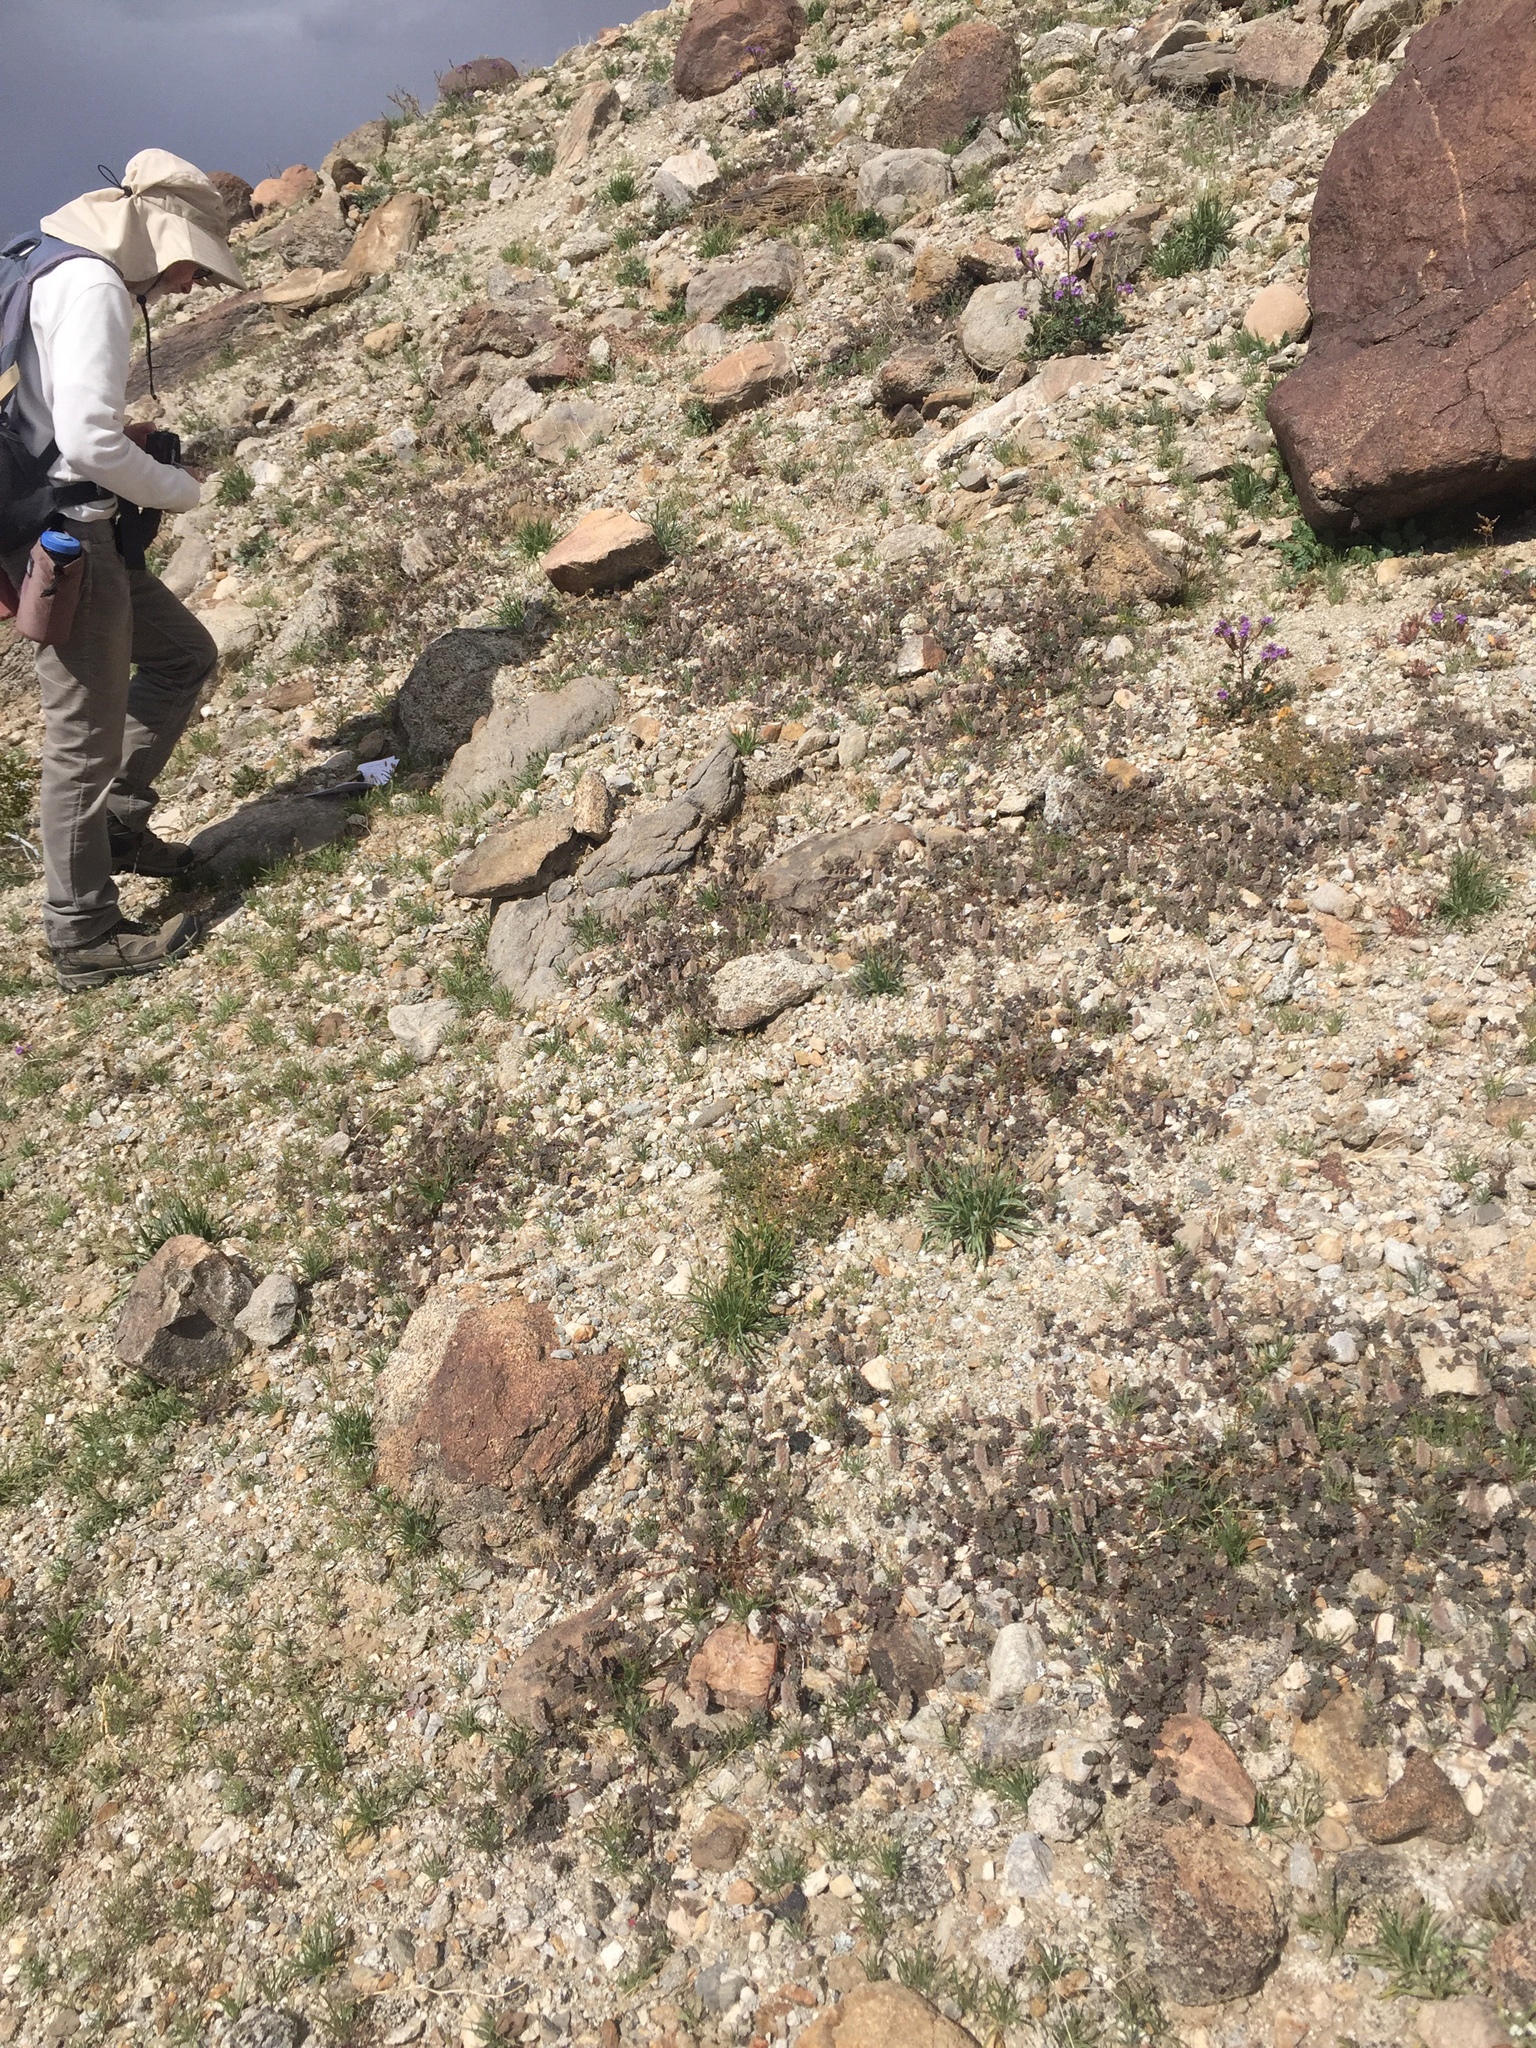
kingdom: Plantae
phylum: Tracheophyta
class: Magnoliopsida
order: Fabales
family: Fabaceae
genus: Dalea
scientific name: Dalea mollis
